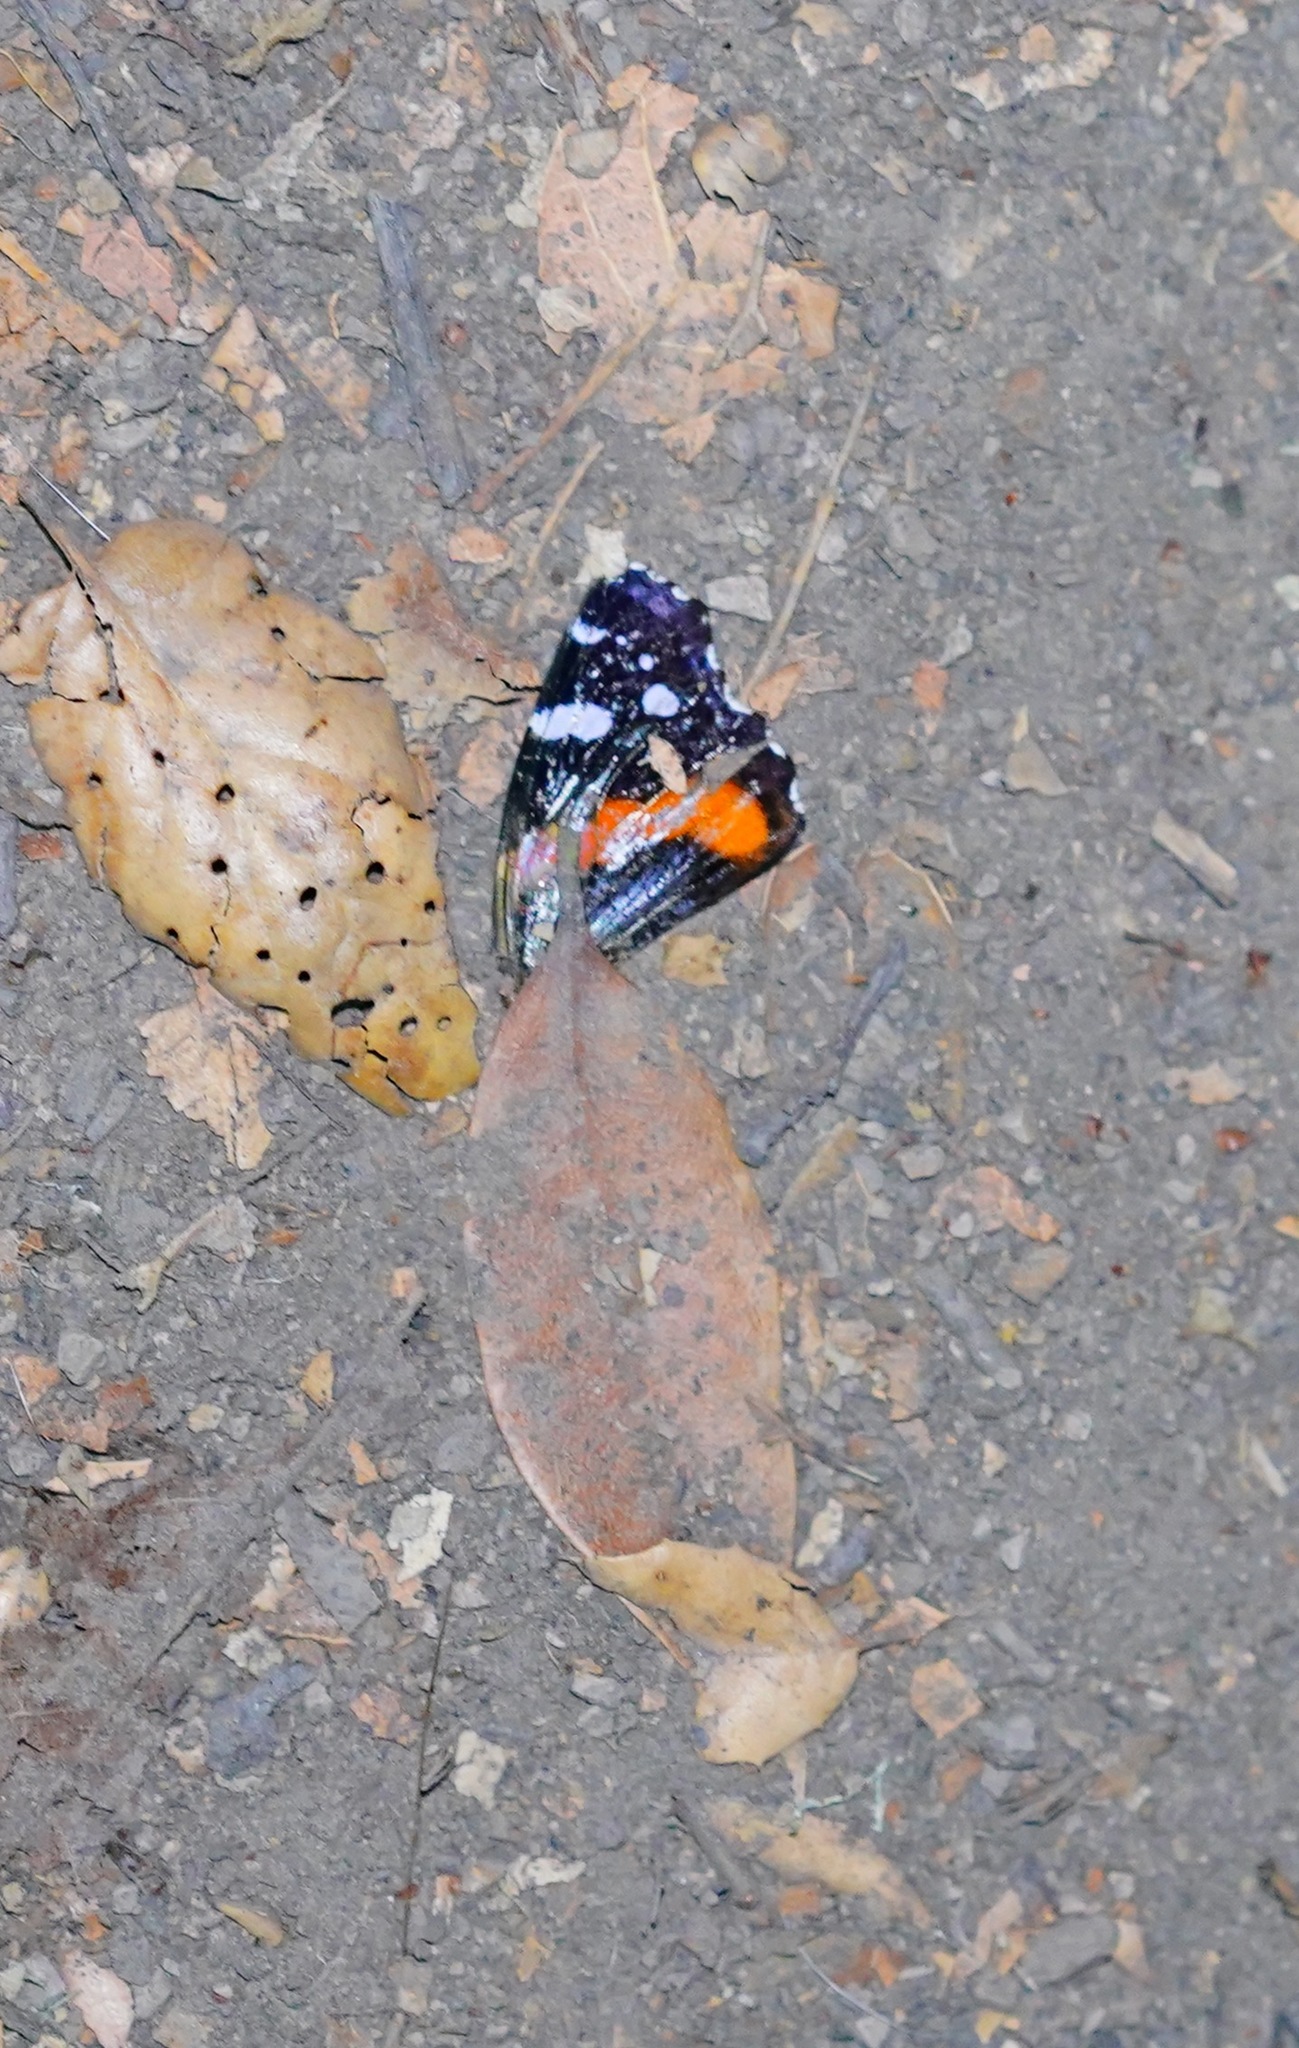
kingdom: Animalia
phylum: Arthropoda
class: Insecta
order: Lepidoptera
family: Nymphalidae
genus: Vanessa
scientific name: Vanessa atalanta
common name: Red admiral
